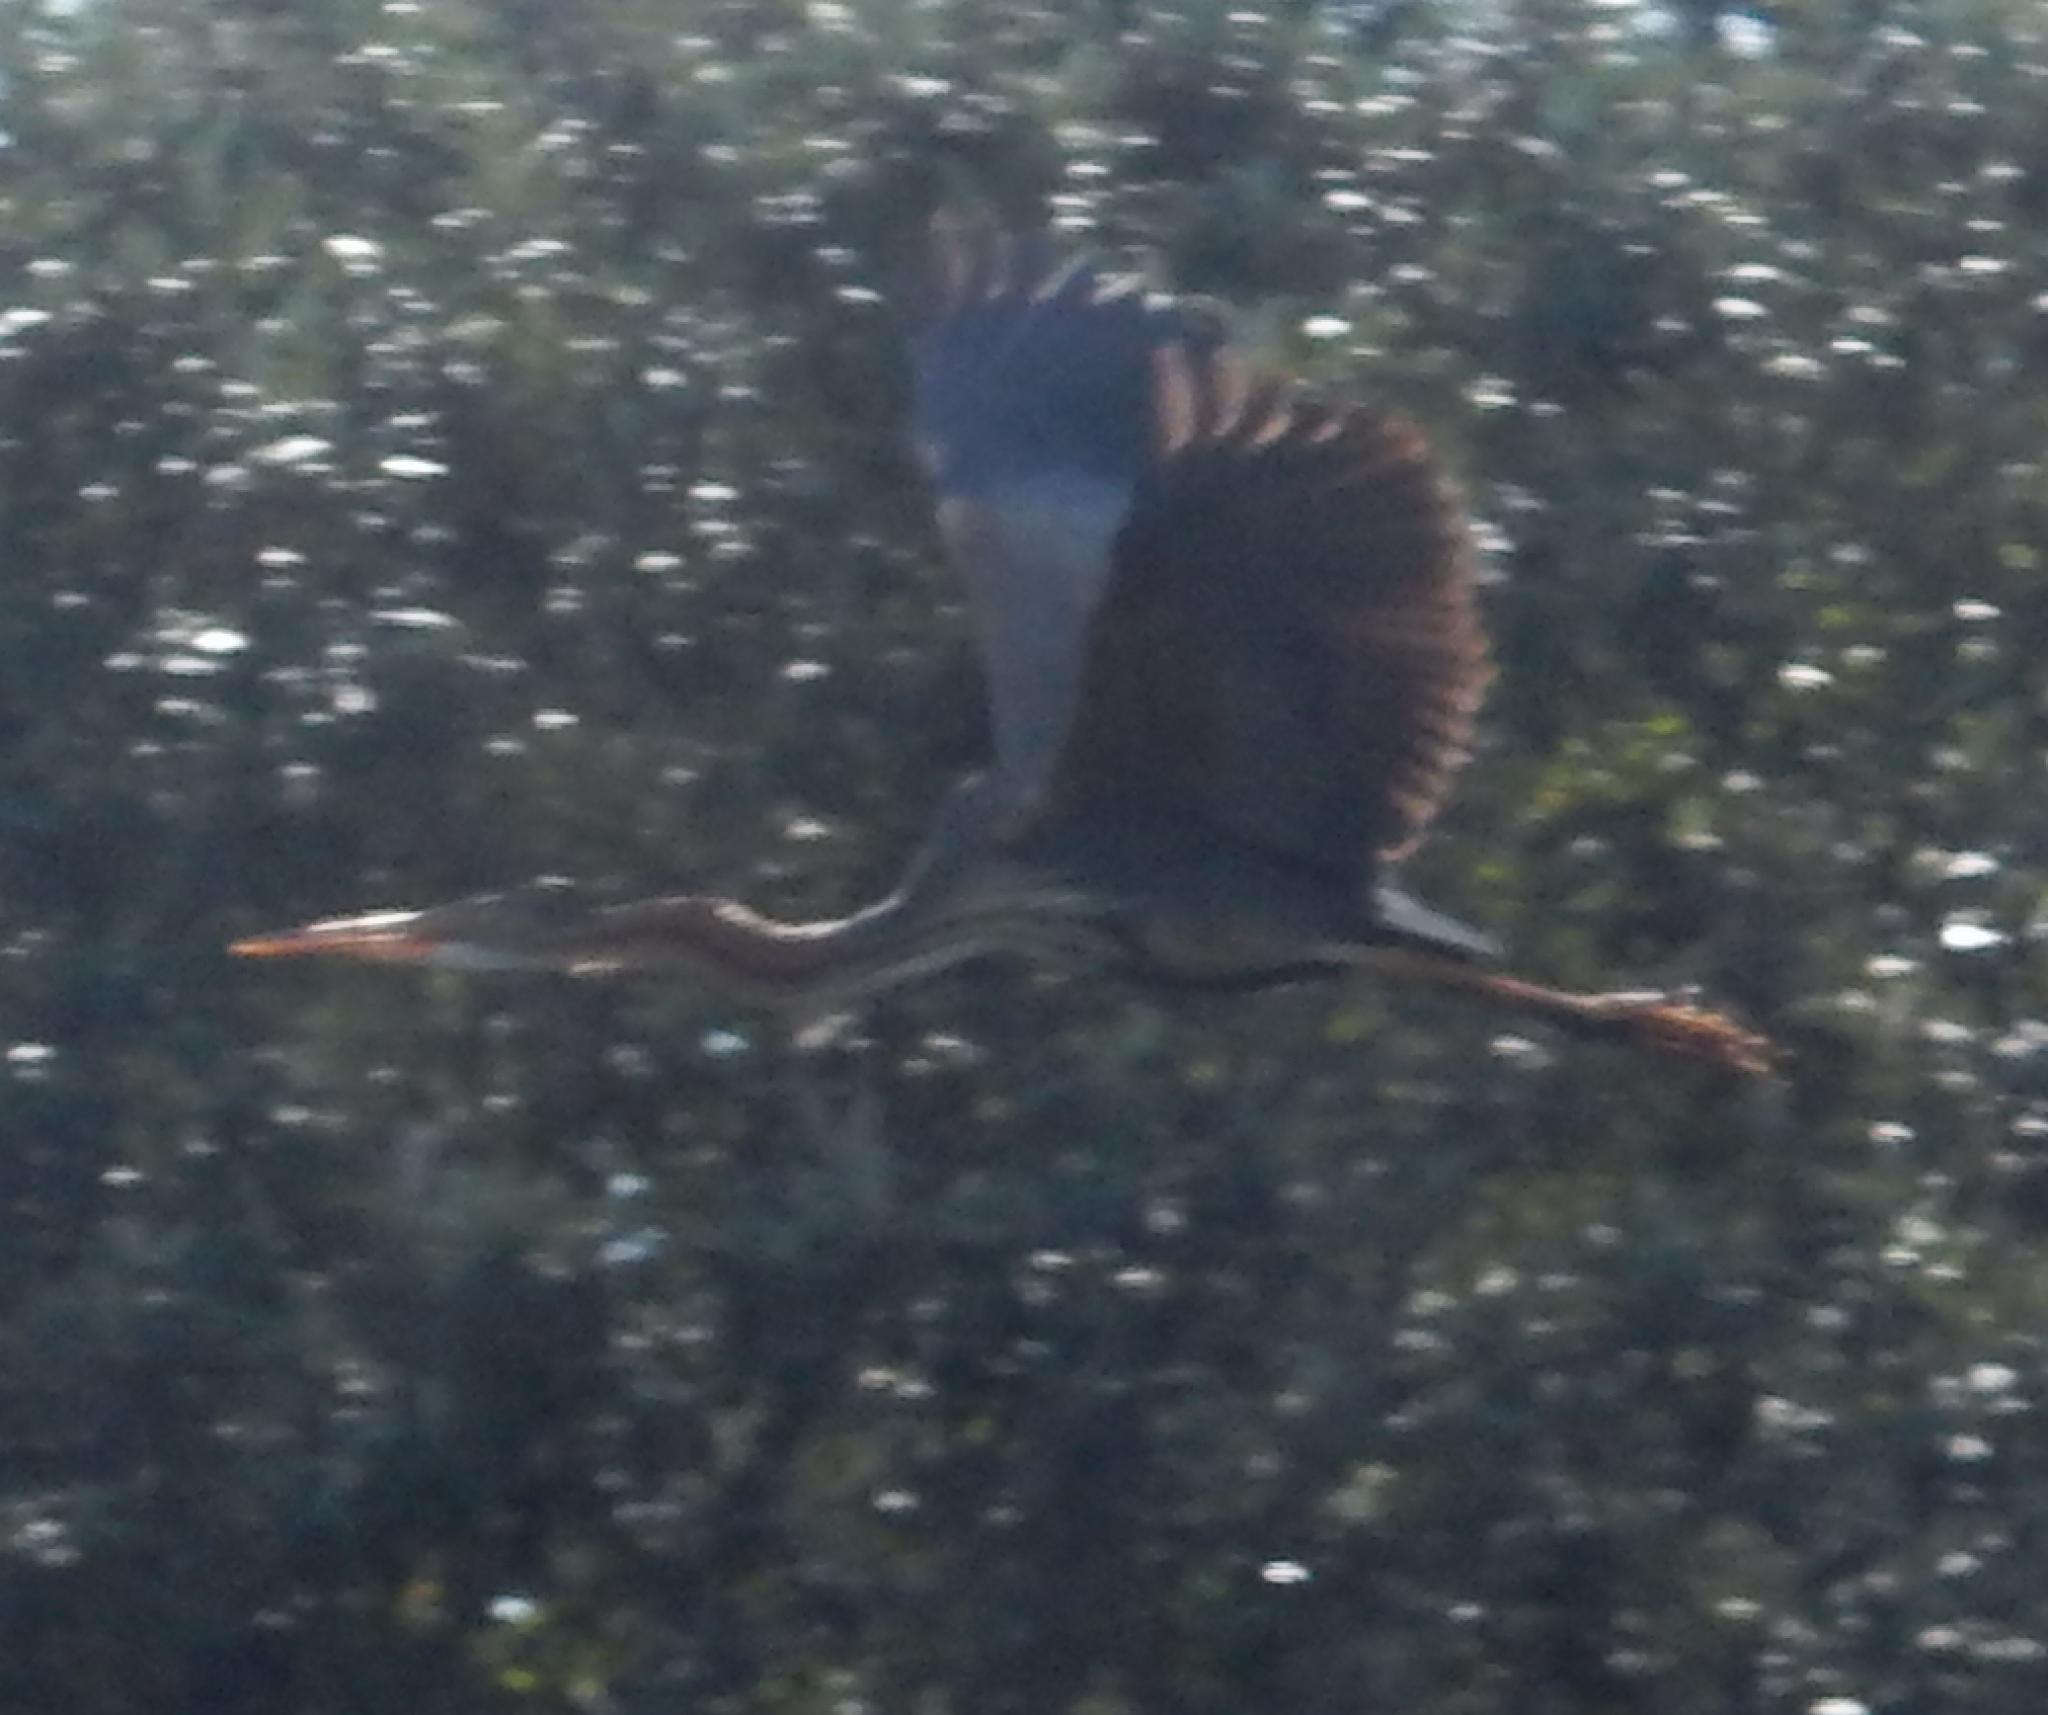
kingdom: Animalia
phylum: Chordata
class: Aves
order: Pelecaniformes
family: Ardeidae
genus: Ardea
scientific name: Ardea purpurea
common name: Purple heron
